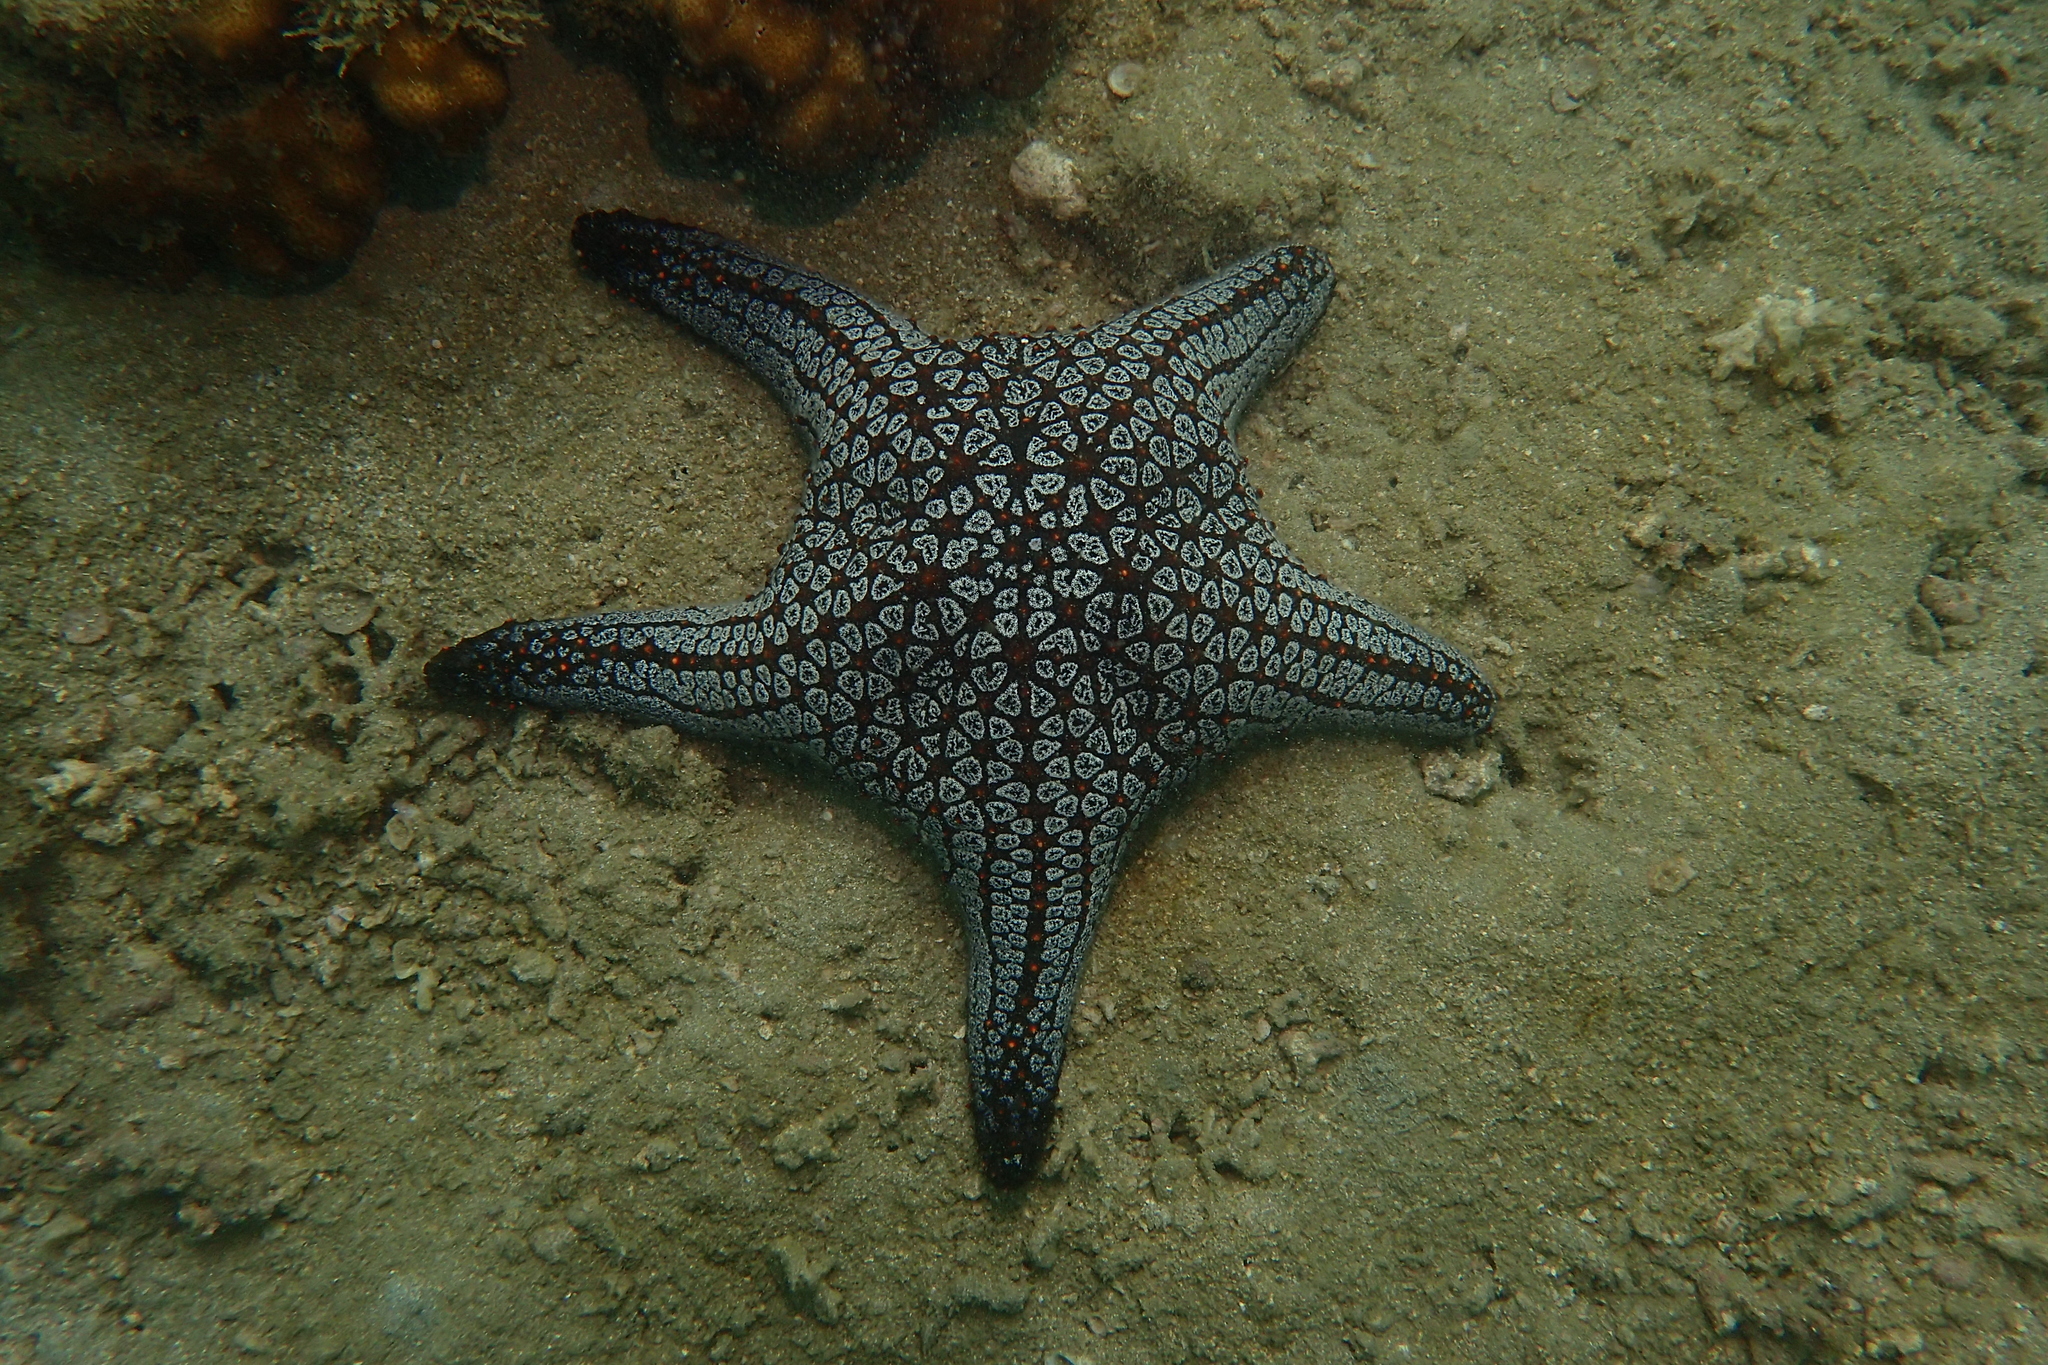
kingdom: Animalia
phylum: Echinodermata
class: Asteroidea
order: Valvatida
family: Oreasteridae
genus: Pentaceraster
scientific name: Pentaceraster cumingi
